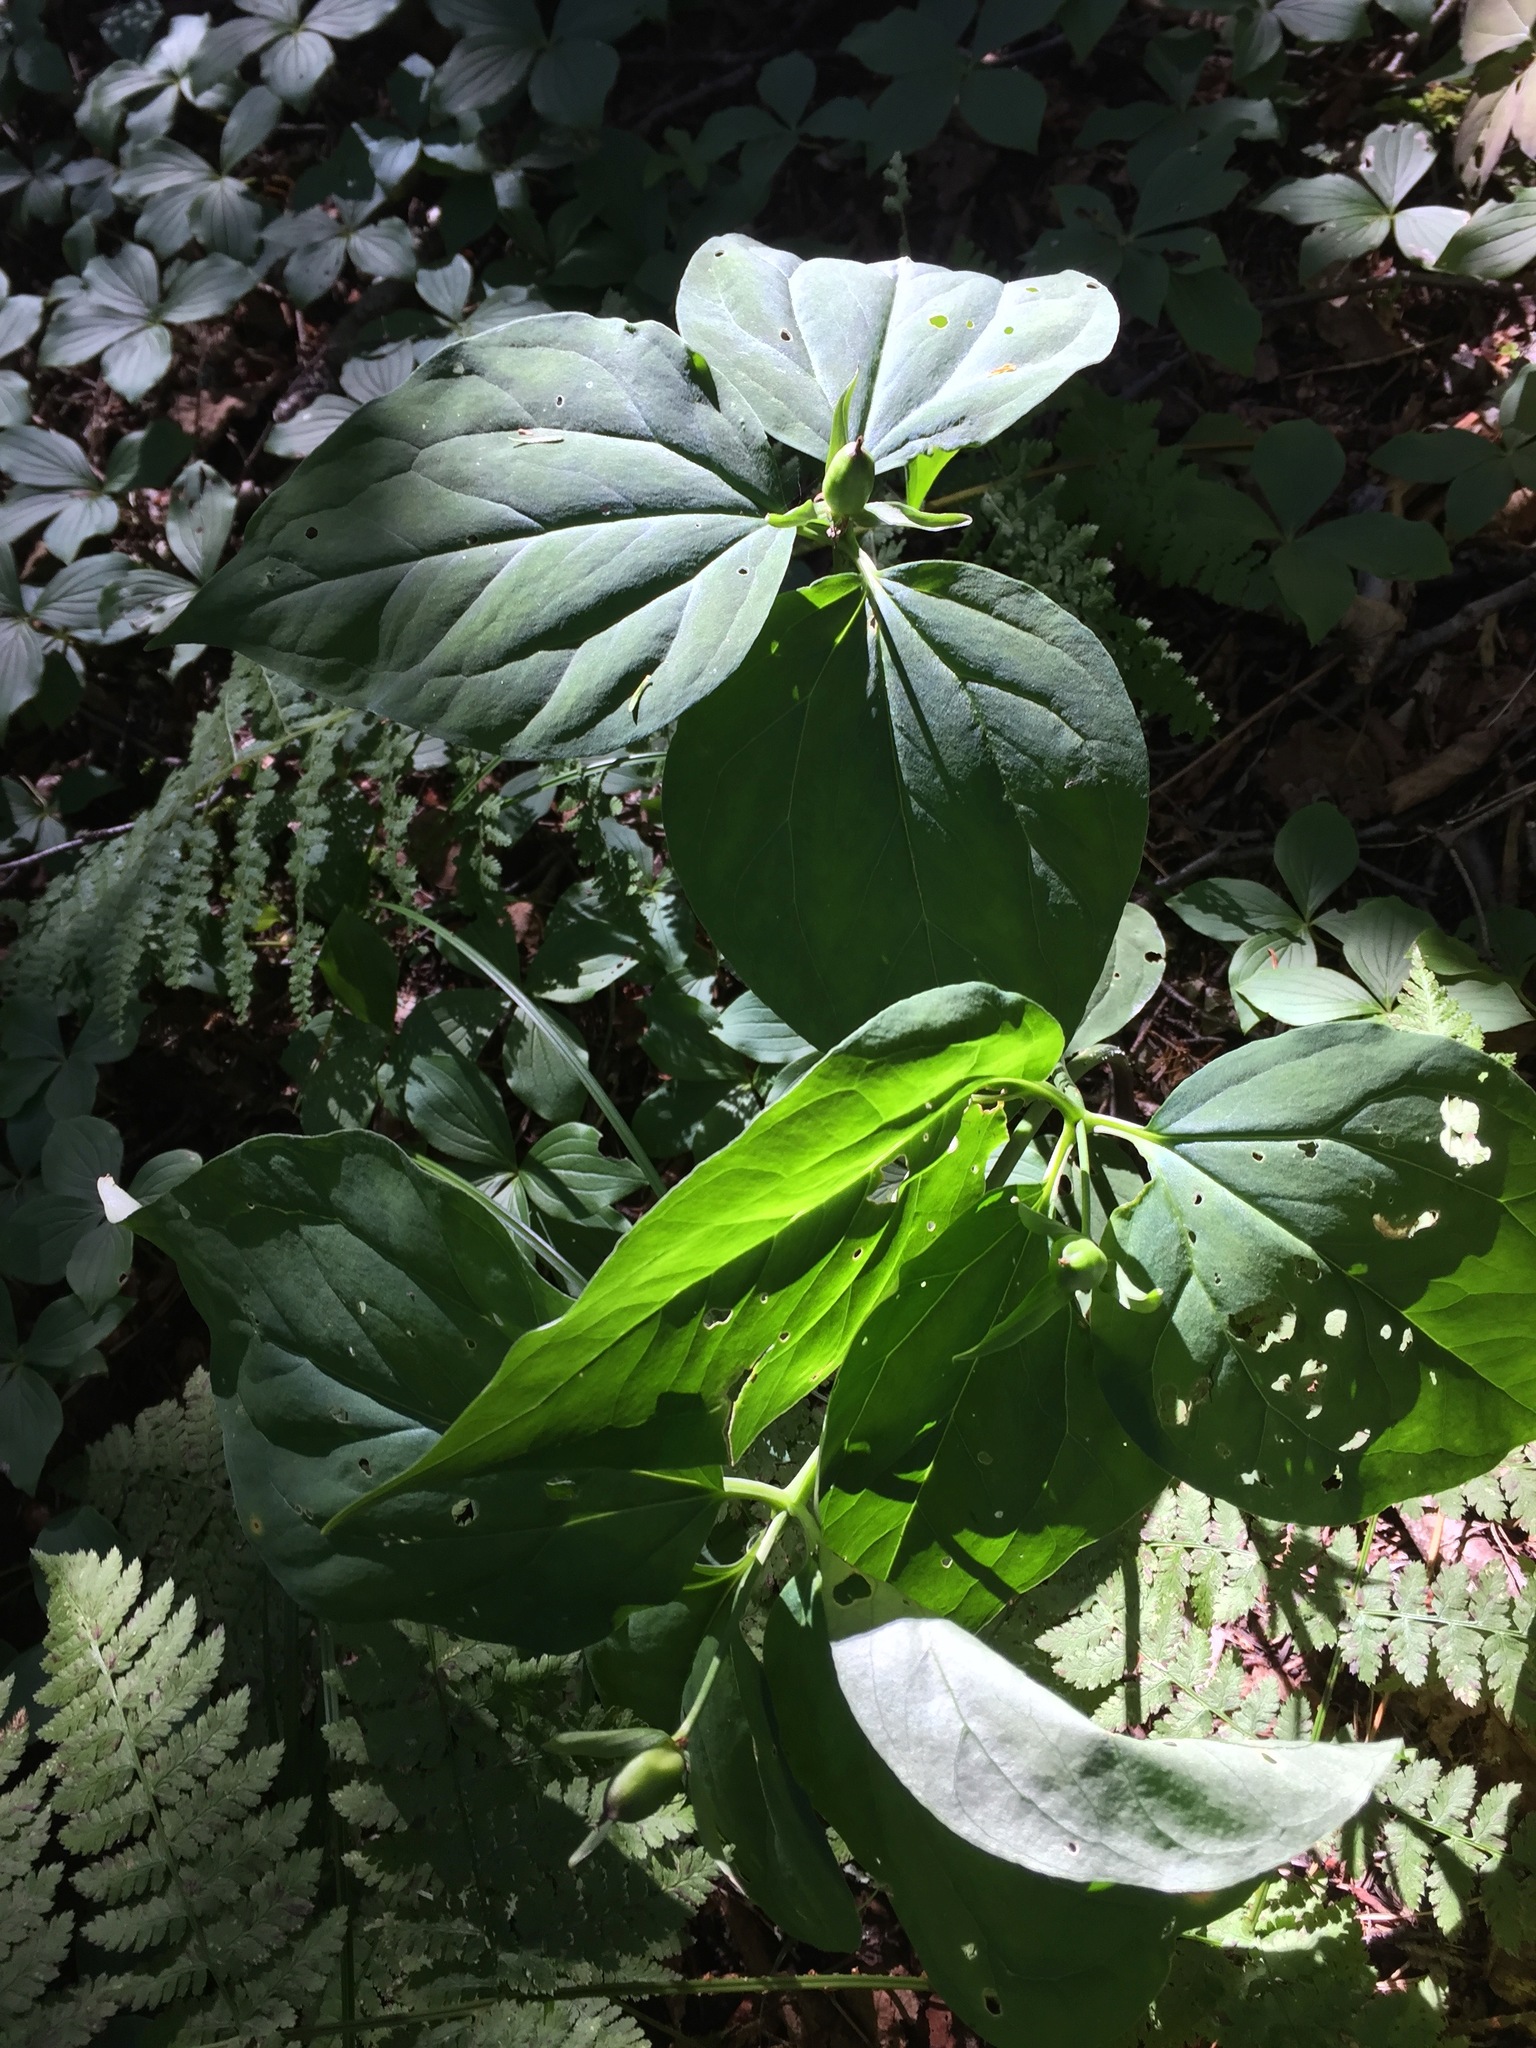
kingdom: Plantae
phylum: Tracheophyta
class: Liliopsida
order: Liliales
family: Melanthiaceae
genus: Trillium
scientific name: Trillium undulatum
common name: Paint trillium
